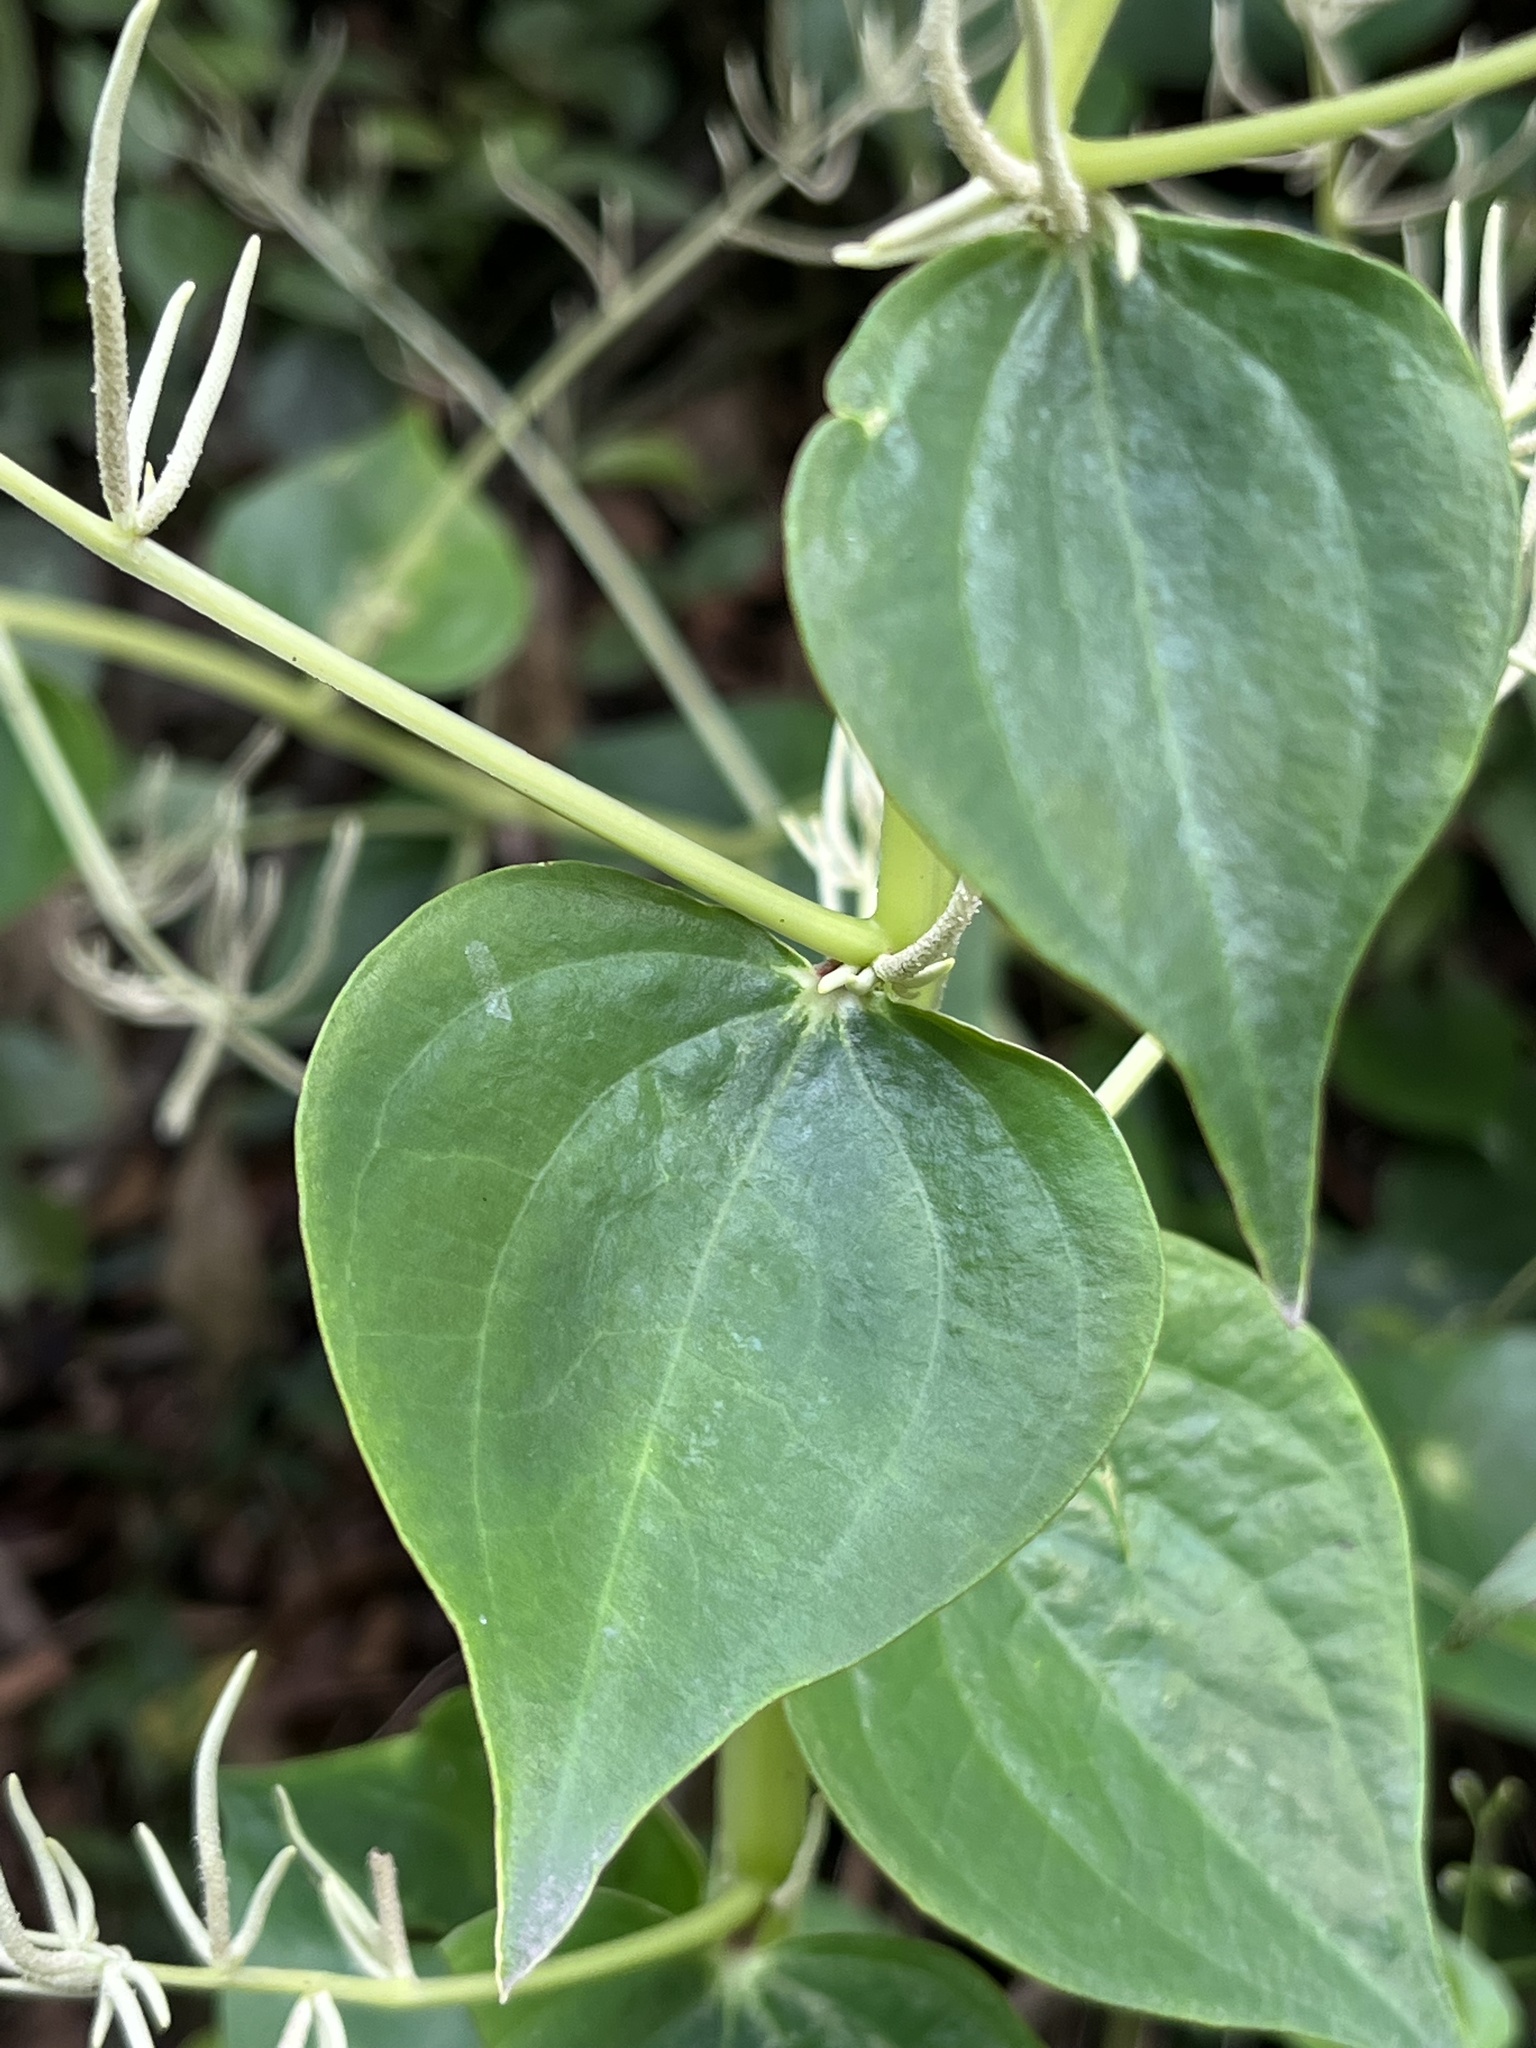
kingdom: Plantae
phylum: Tracheophyta
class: Magnoliopsida
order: Piperales
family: Piperaceae
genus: Peperomia
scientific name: Peperomia conturbans
